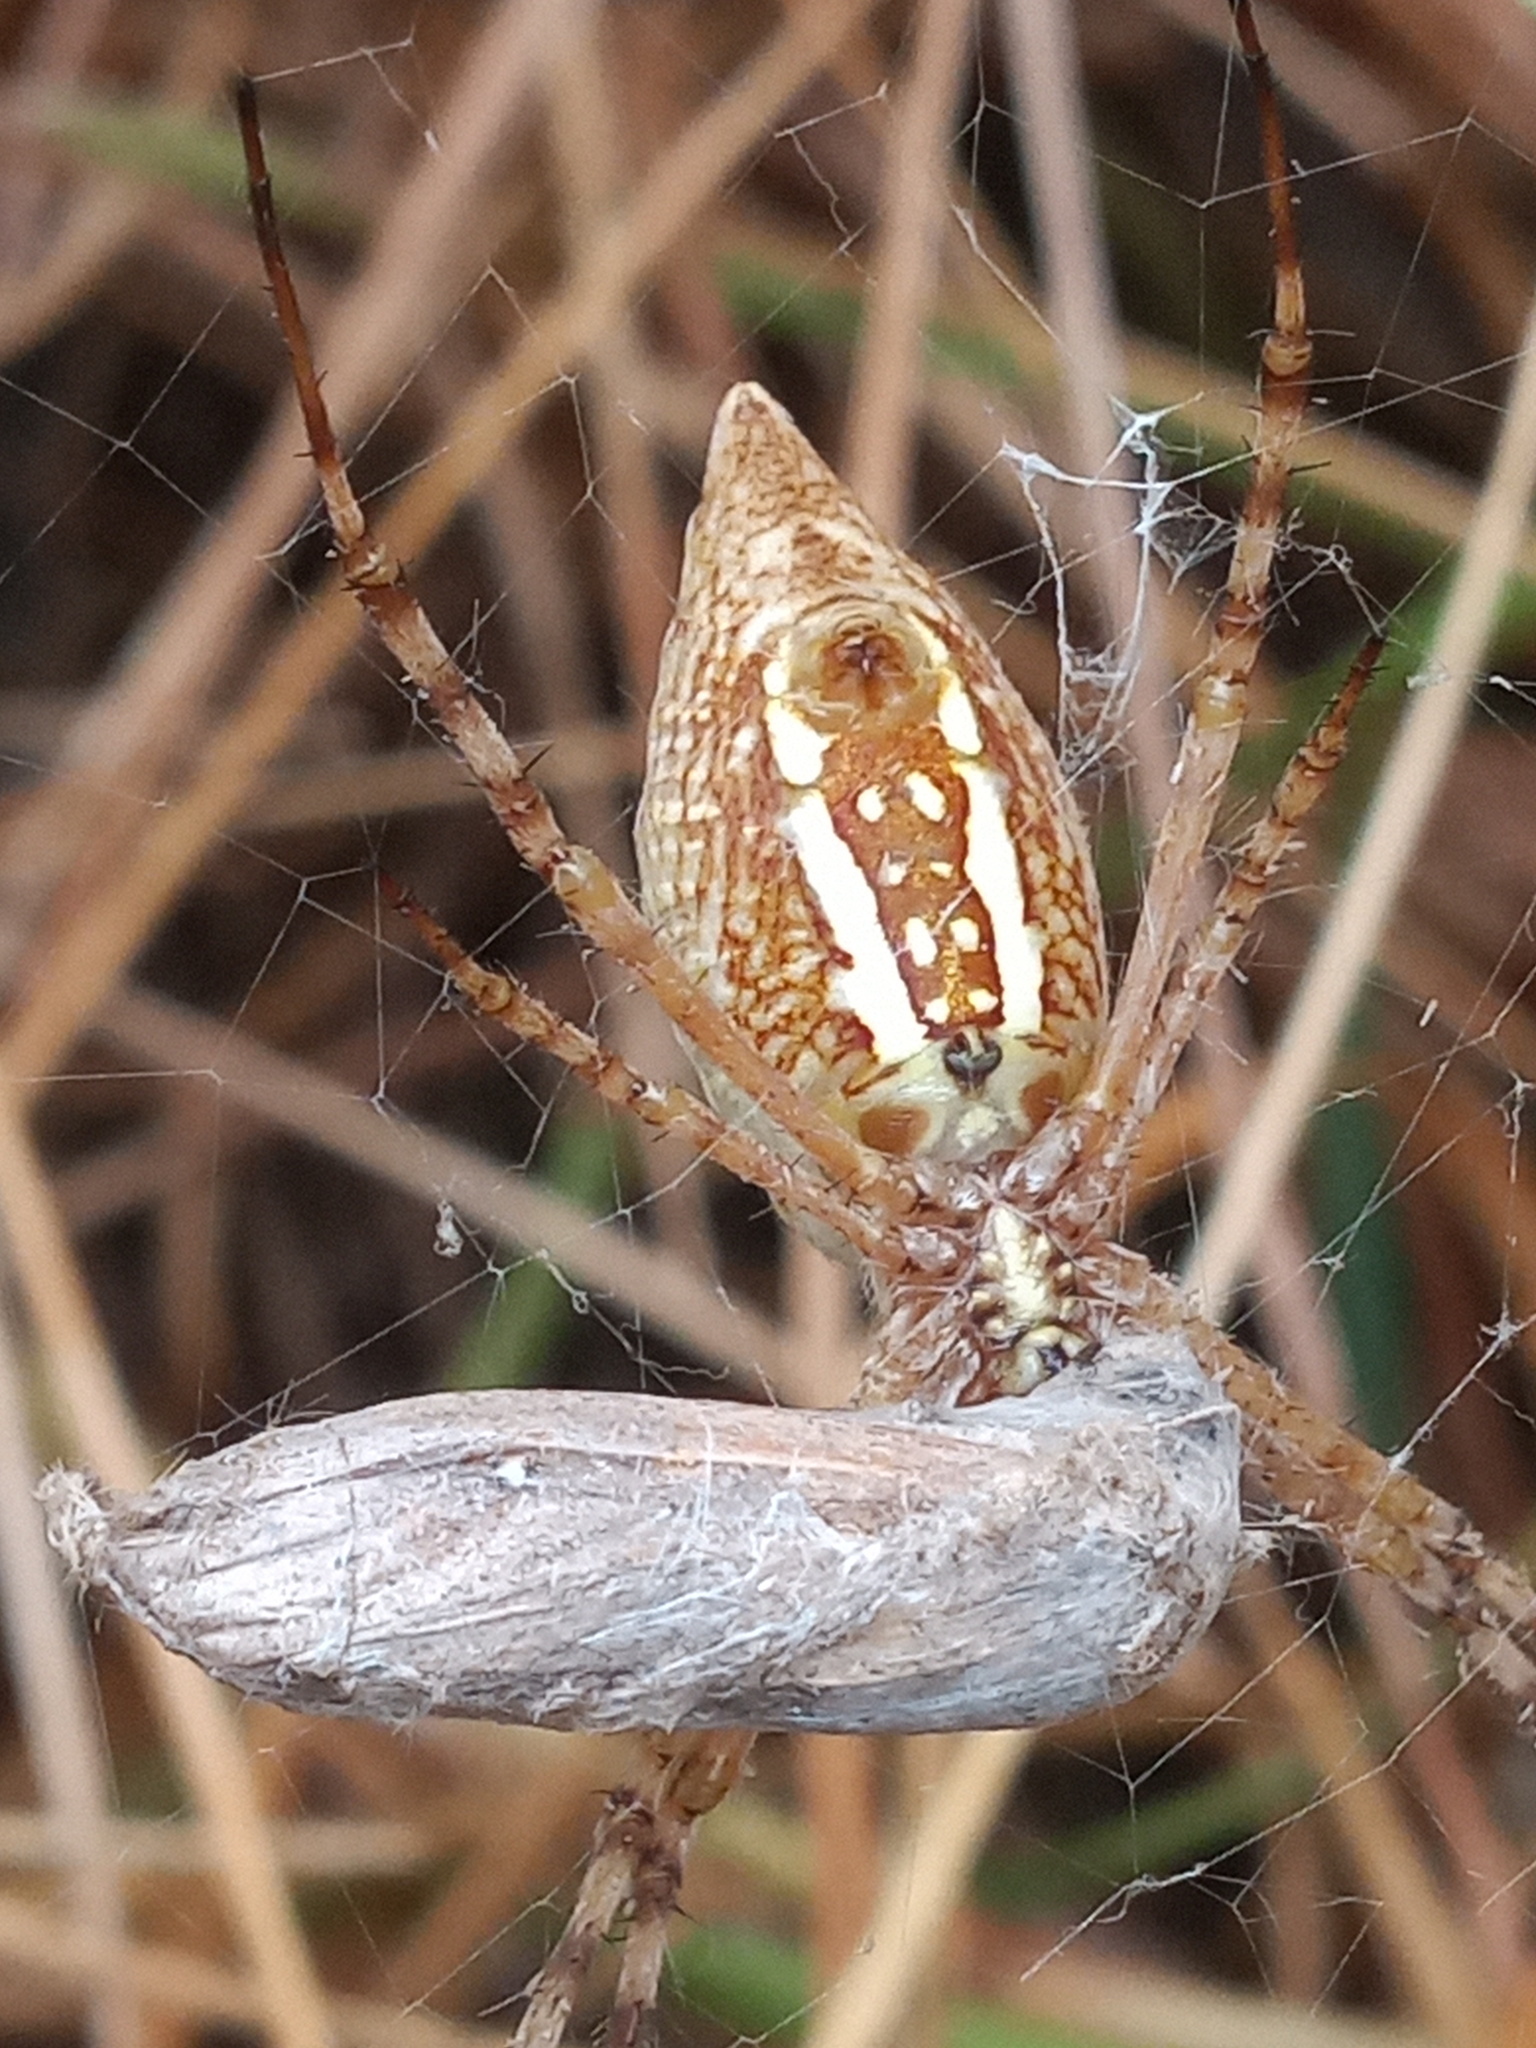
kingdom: Animalia
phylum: Arthropoda
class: Arachnida
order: Araneae
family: Araneidae
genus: Argiope
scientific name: Argiope trifasciata
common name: Banded garden spider
